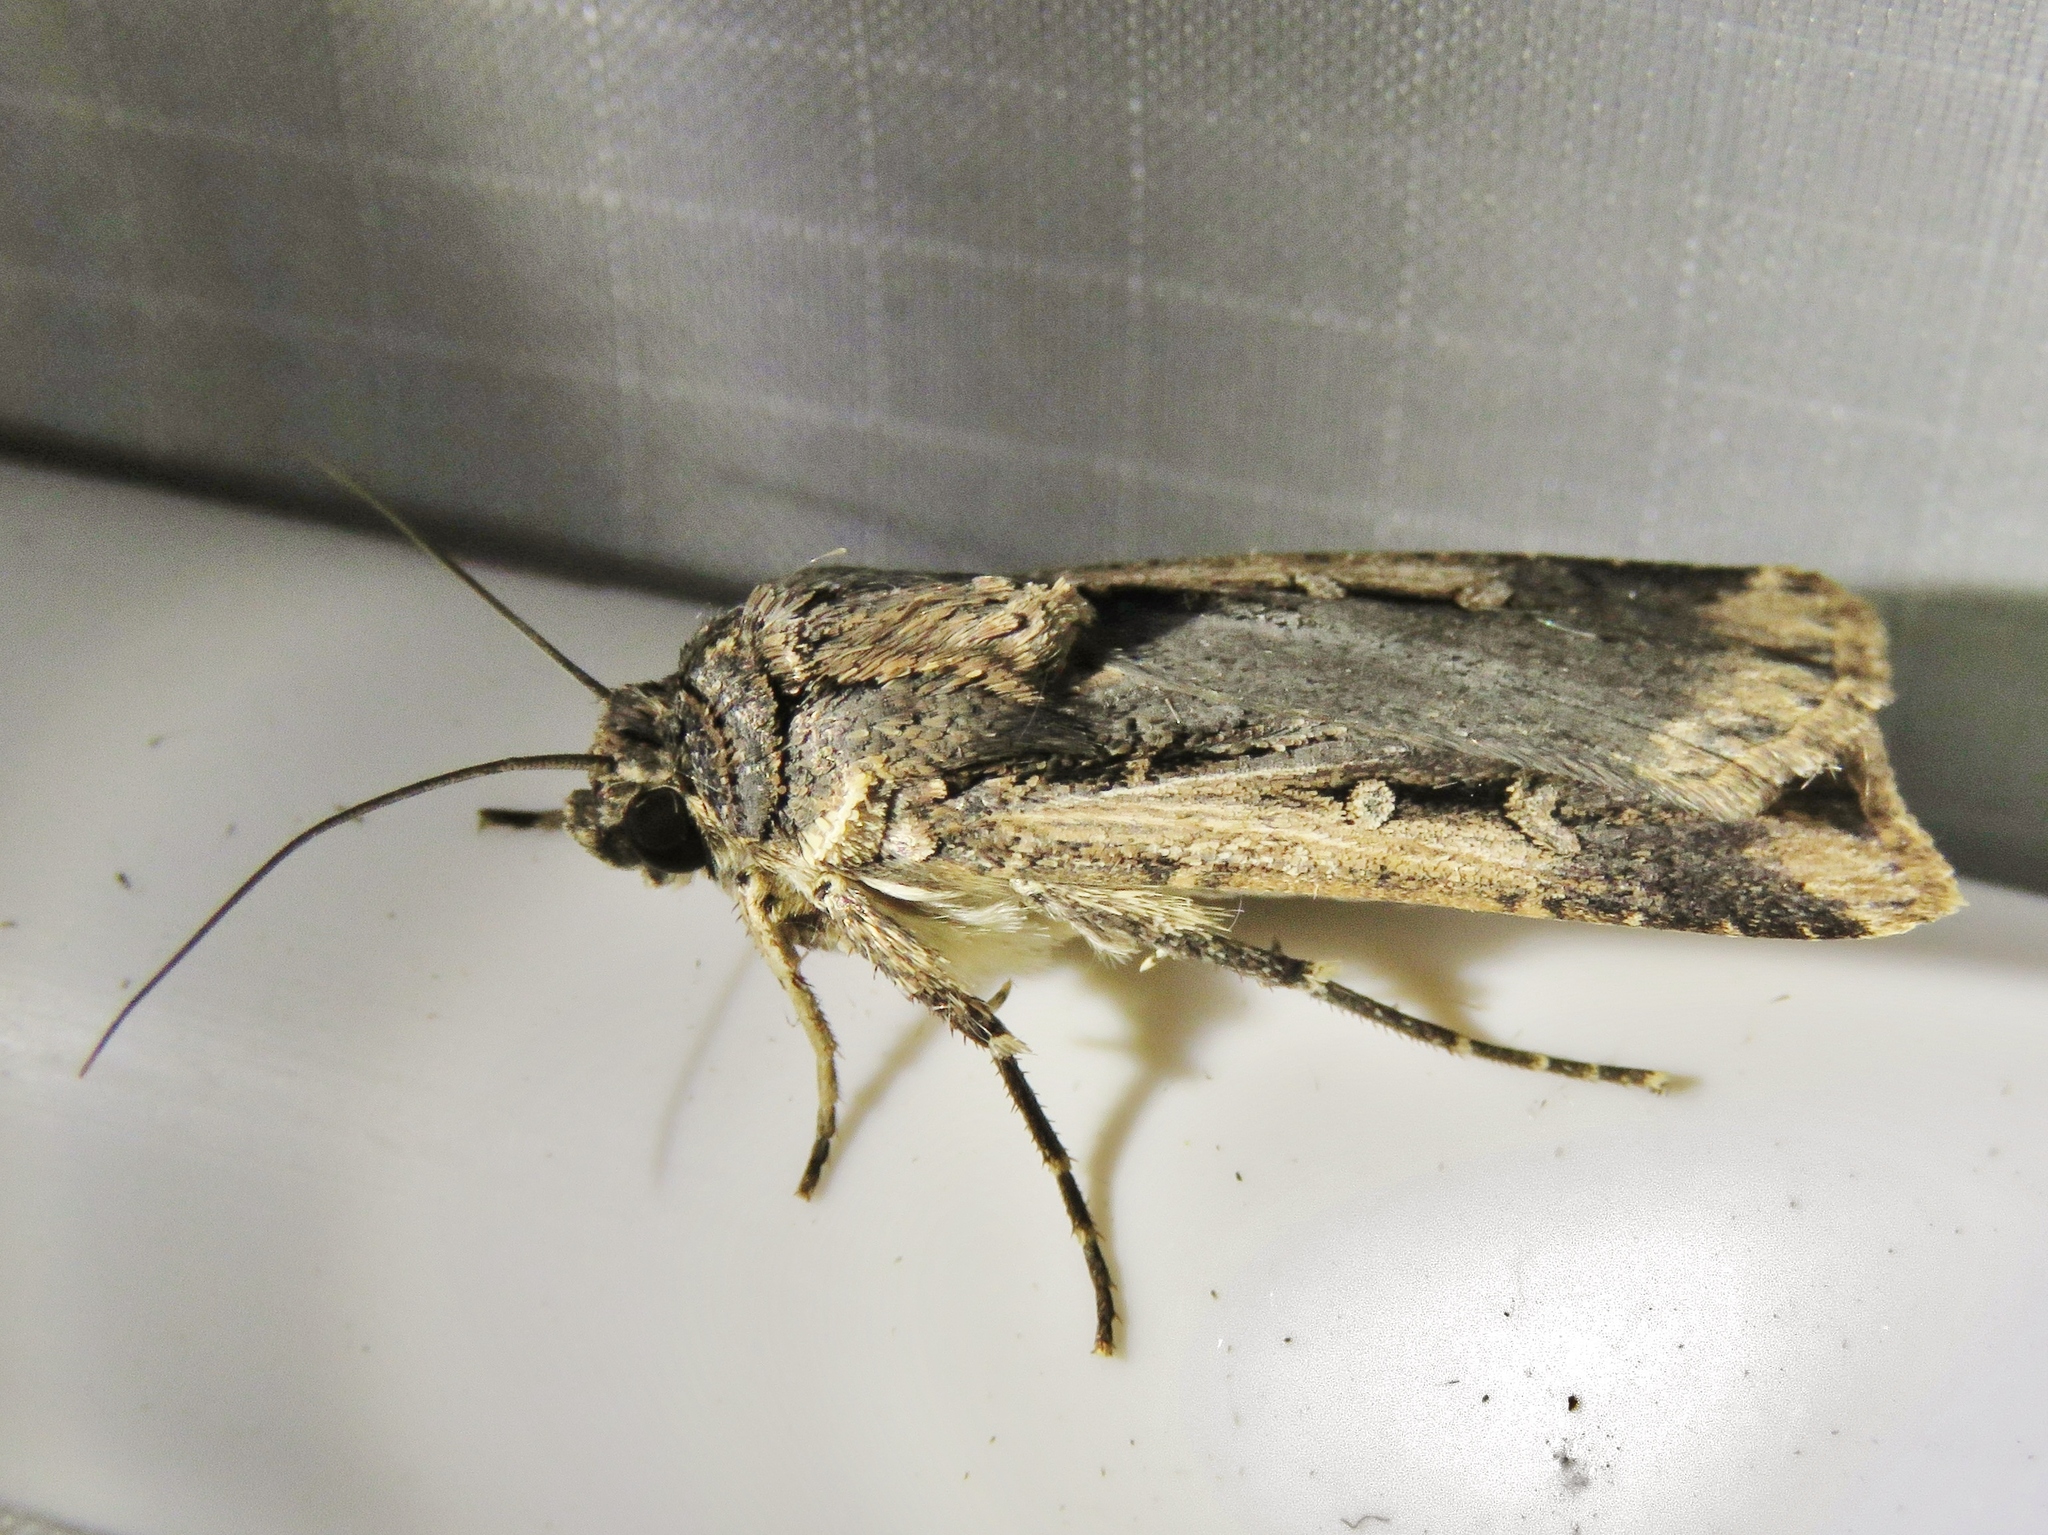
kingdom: Animalia
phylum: Arthropoda
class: Insecta
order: Lepidoptera
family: Noctuidae
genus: Feltia
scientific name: Feltia subterranea
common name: Granulate cutworm
